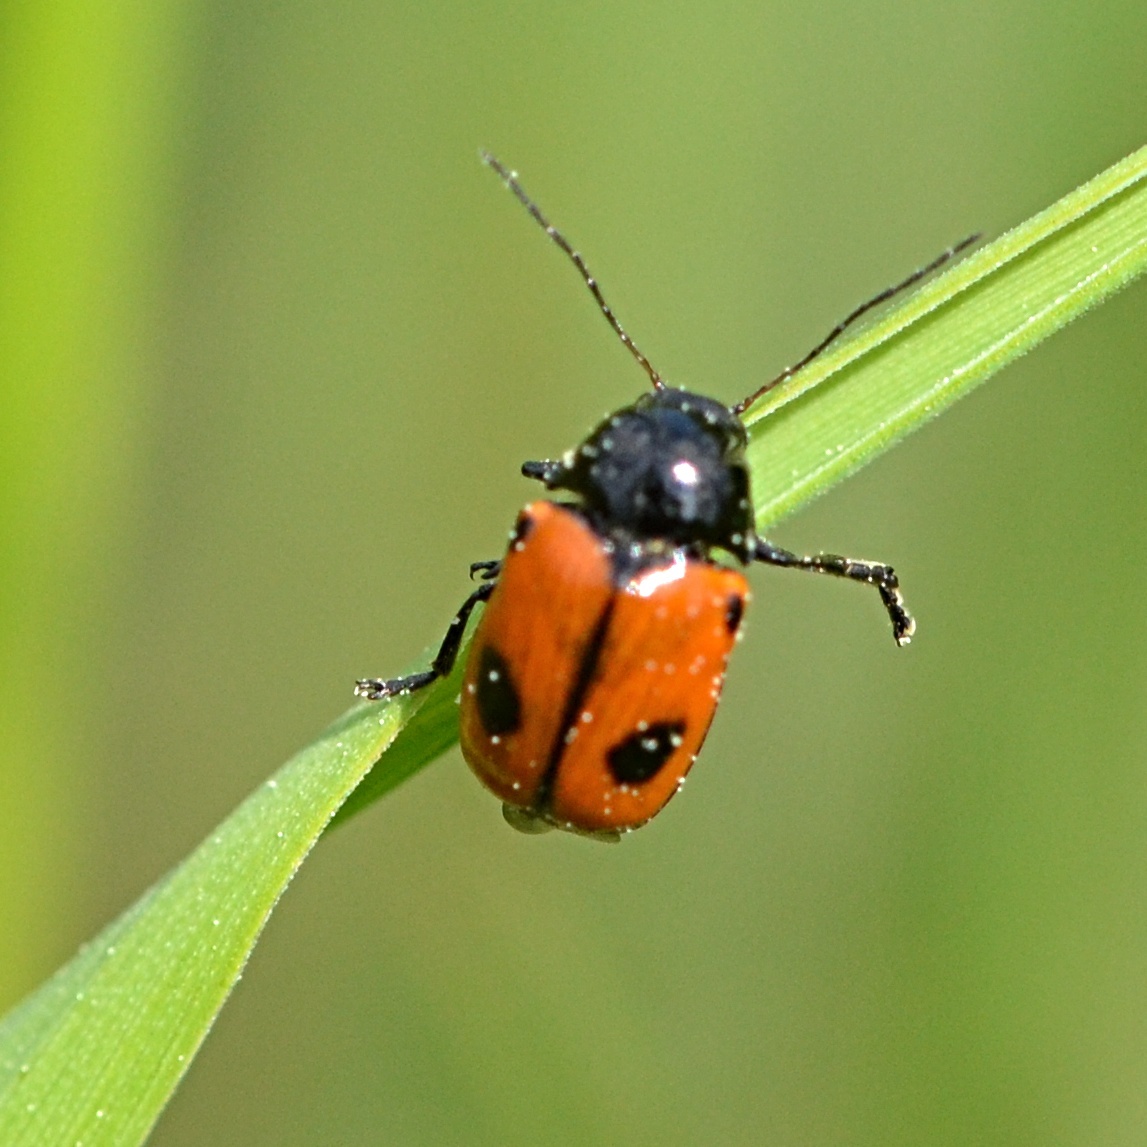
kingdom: Animalia
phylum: Arthropoda
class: Insecta
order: Coleoptera
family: Chrysomelidae
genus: Chiridopsis
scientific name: Chiridopsis bipunctata
